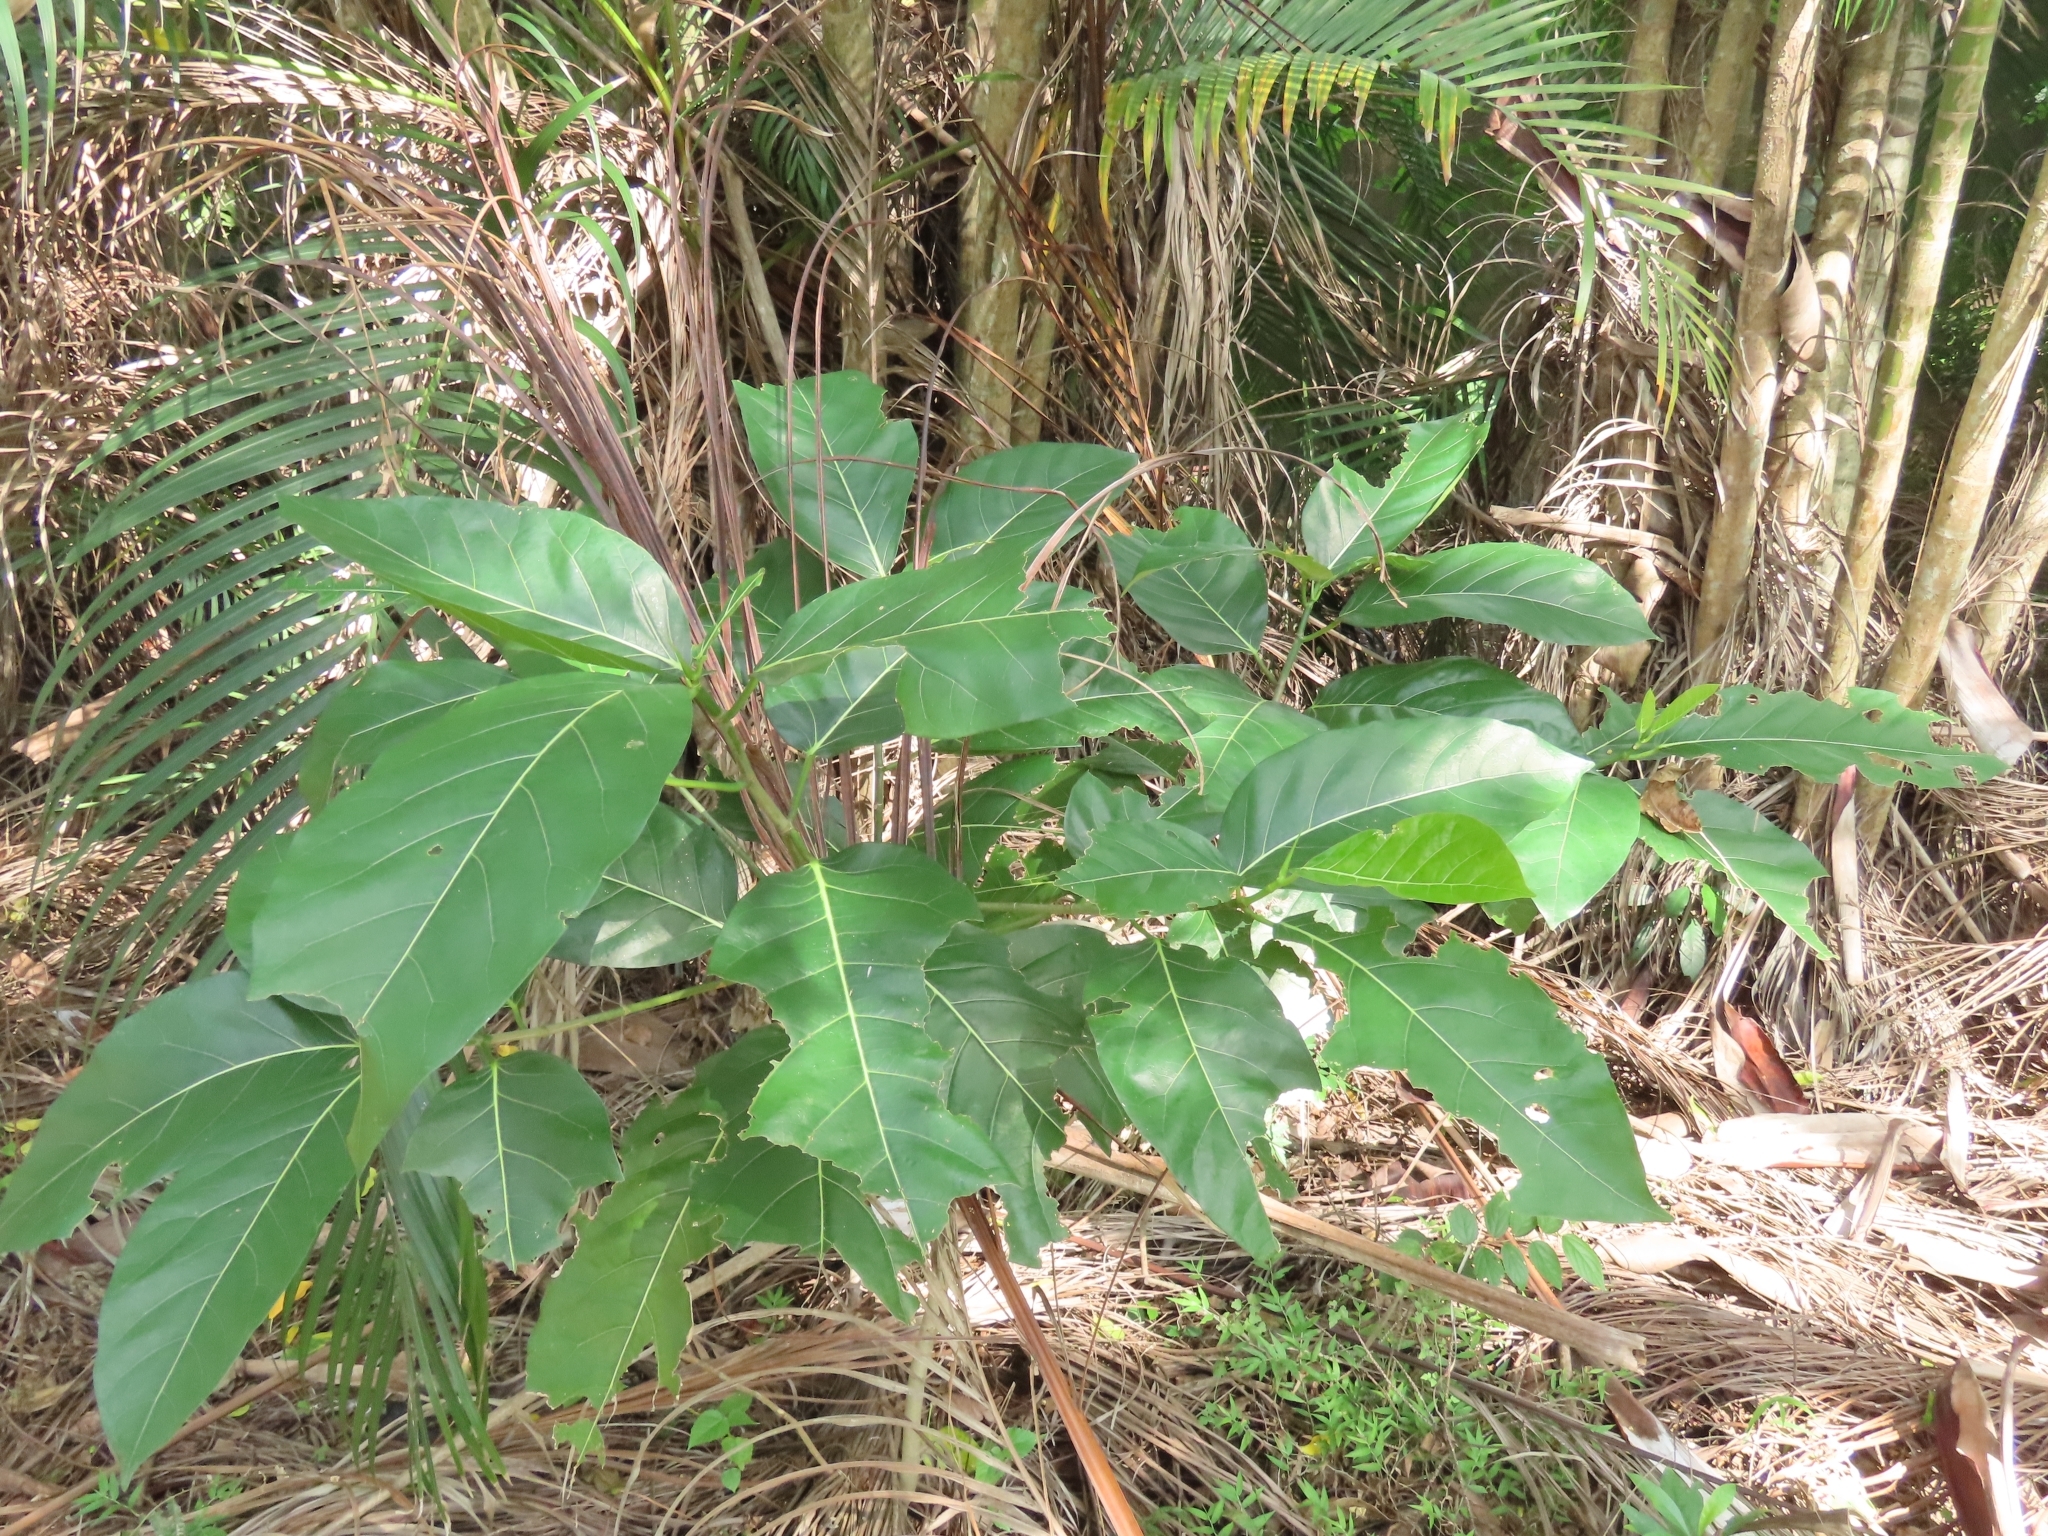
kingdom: Plantae
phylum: Tracheophyta
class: Magnoliopsida
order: Rosales
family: Moraceae
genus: Ficus
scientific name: Ficus septica
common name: Septic fig
